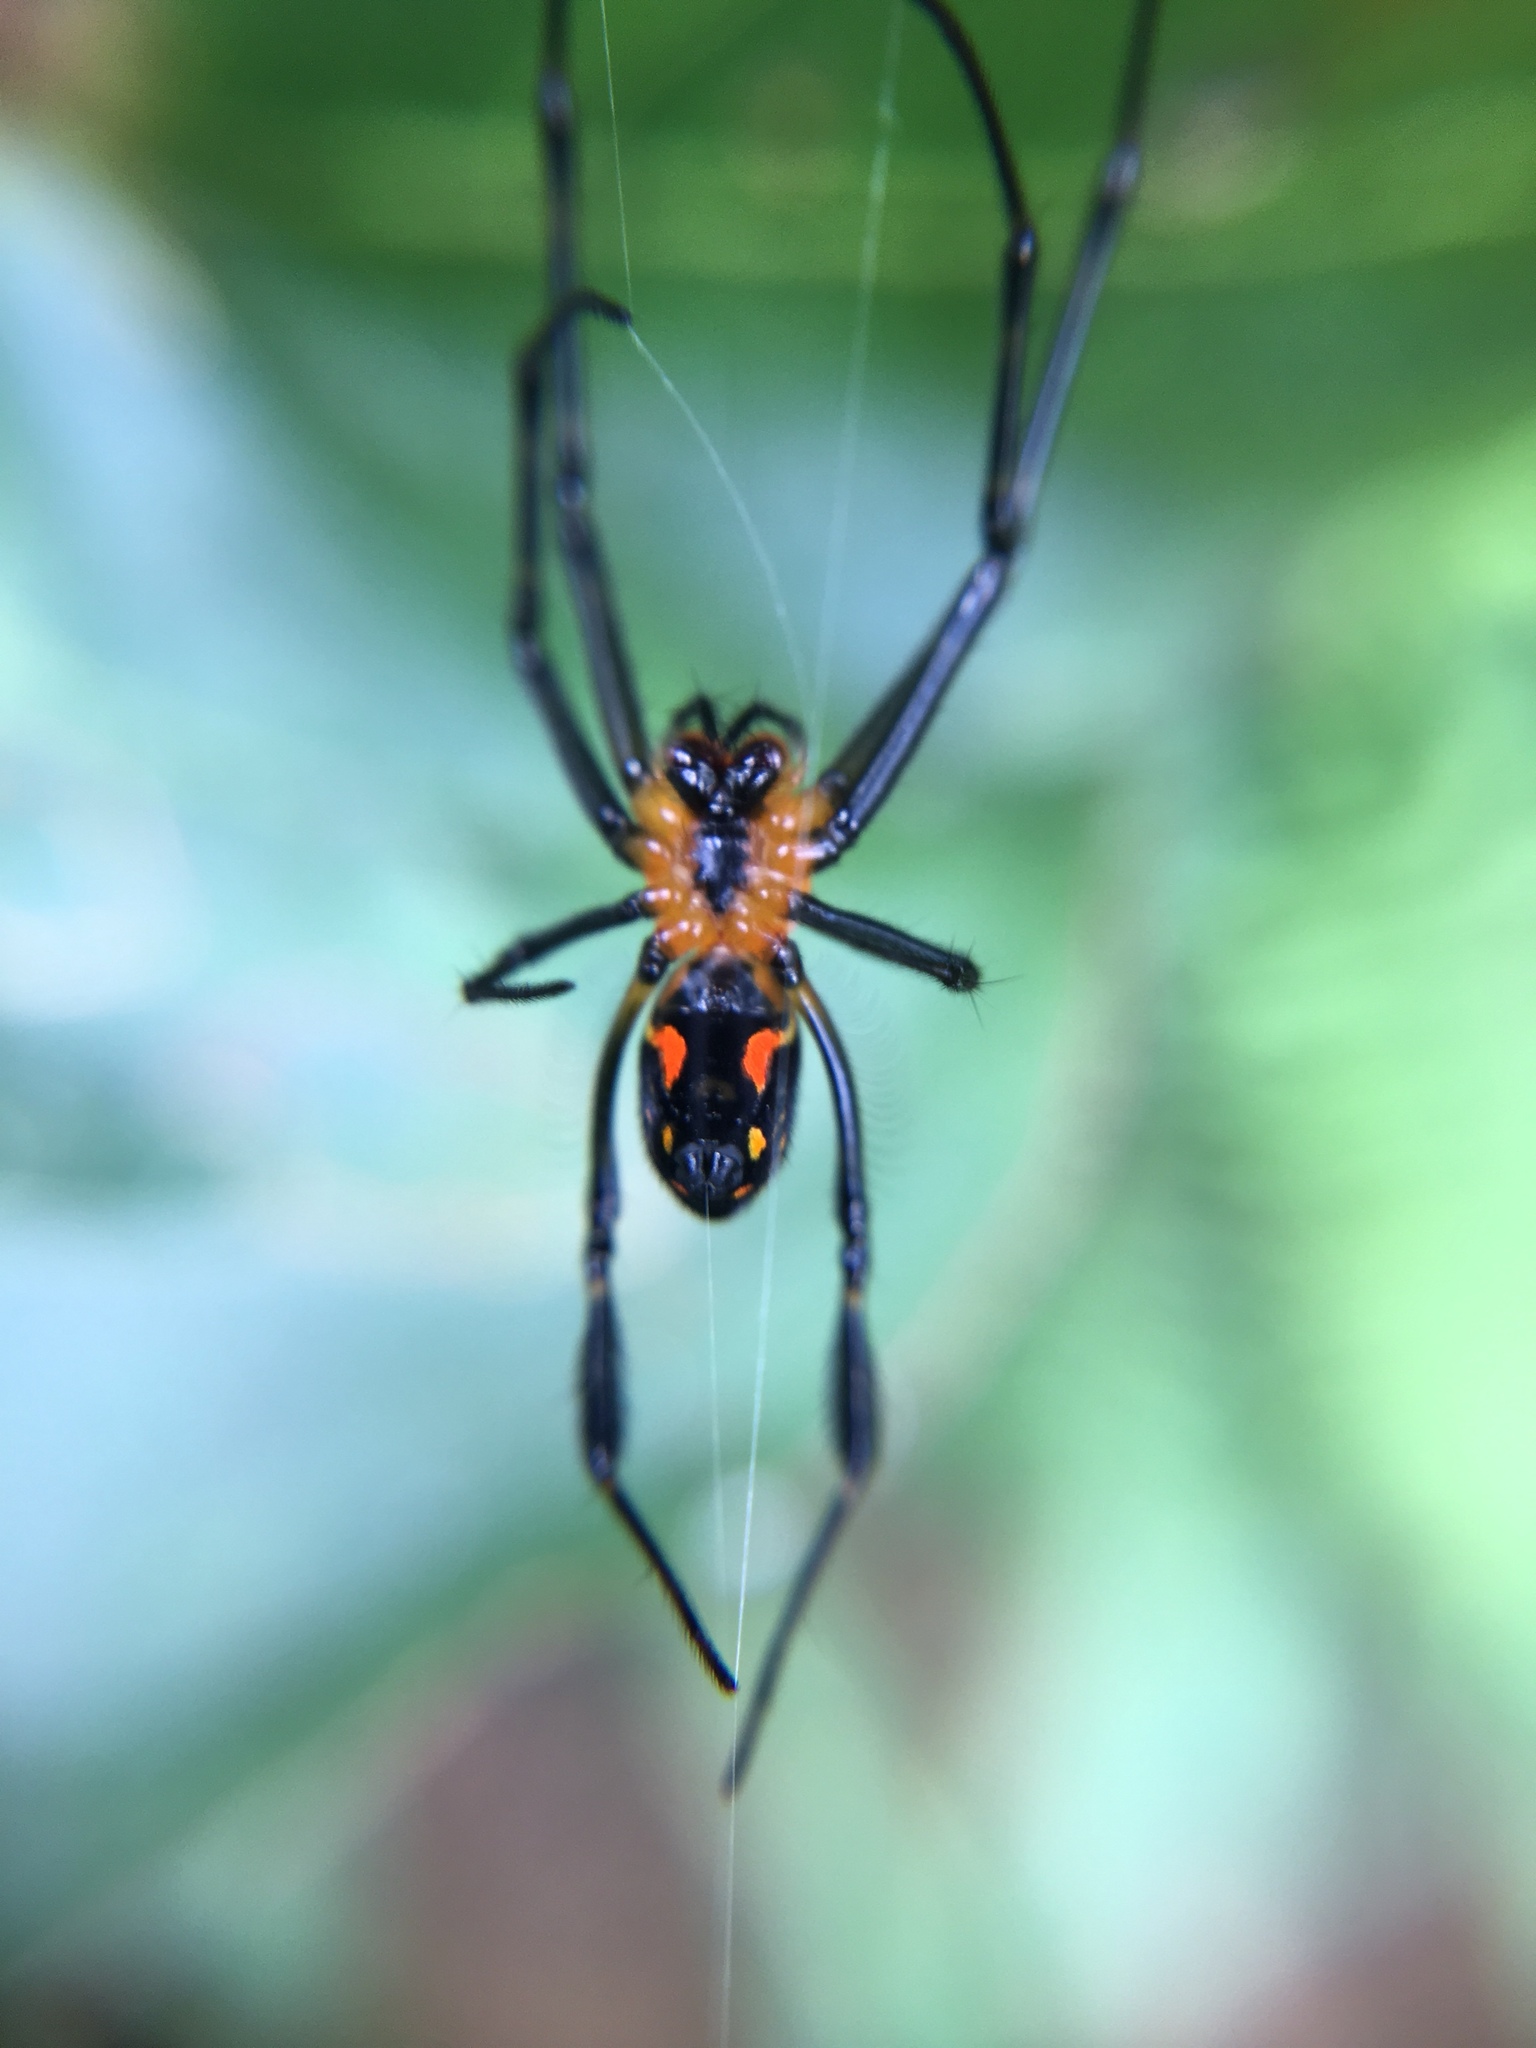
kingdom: Animalia
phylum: Arthropoda
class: Arachnida
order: Araneae
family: Tetragnathidae
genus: Leucauge
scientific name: Leucauge fastigata
